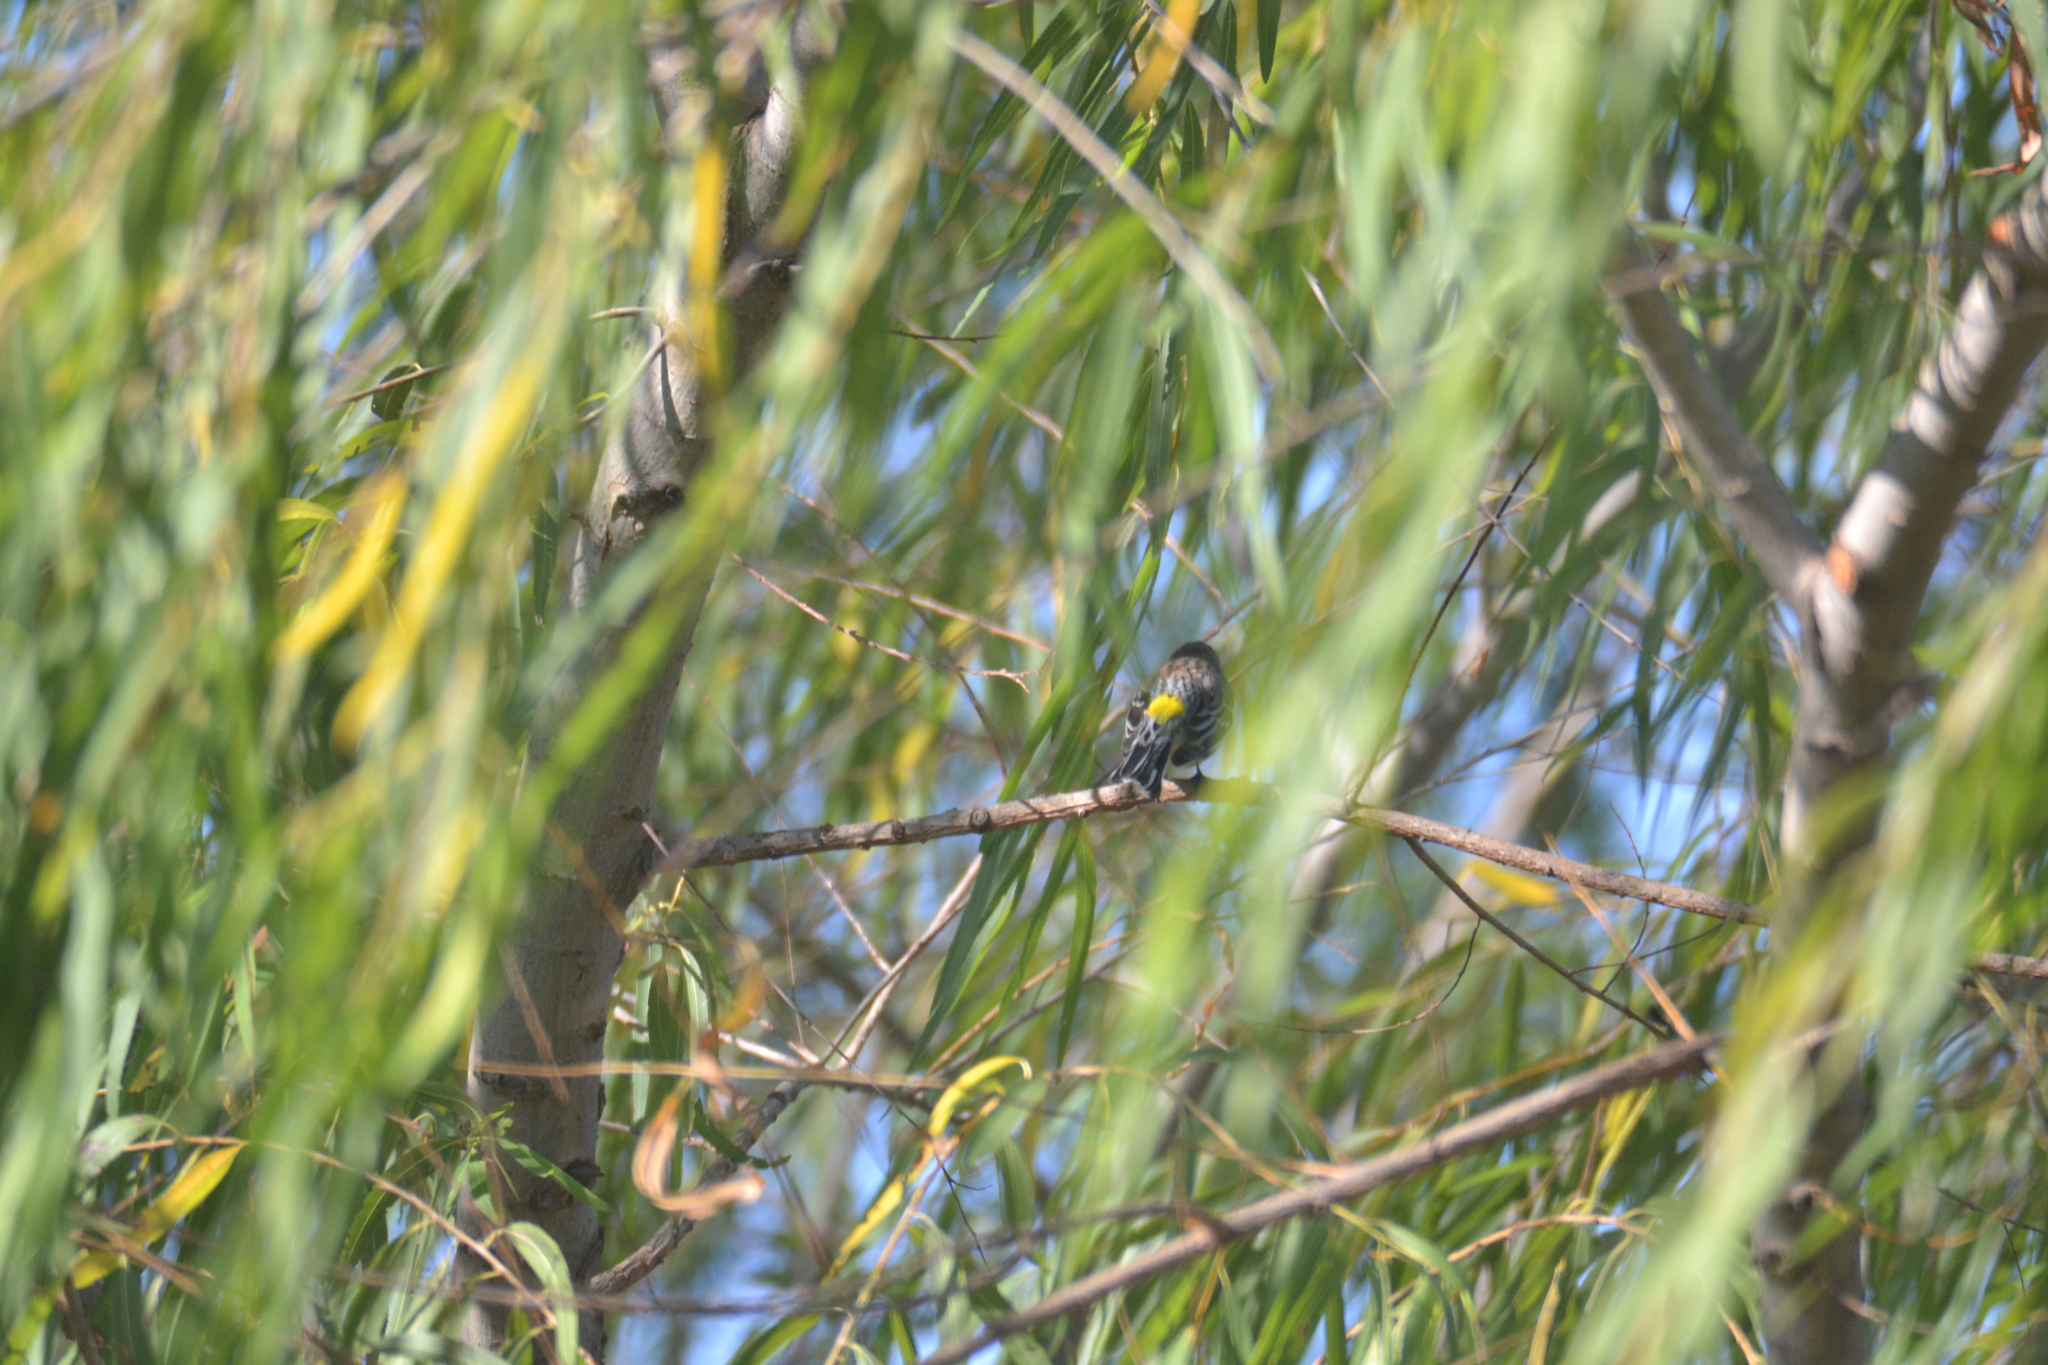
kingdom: Animalia
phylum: Chordata
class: Aves
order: Passeriformes
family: Parulidae
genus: Setophaga
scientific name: Setophaga coronata
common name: Myrtle warbler
